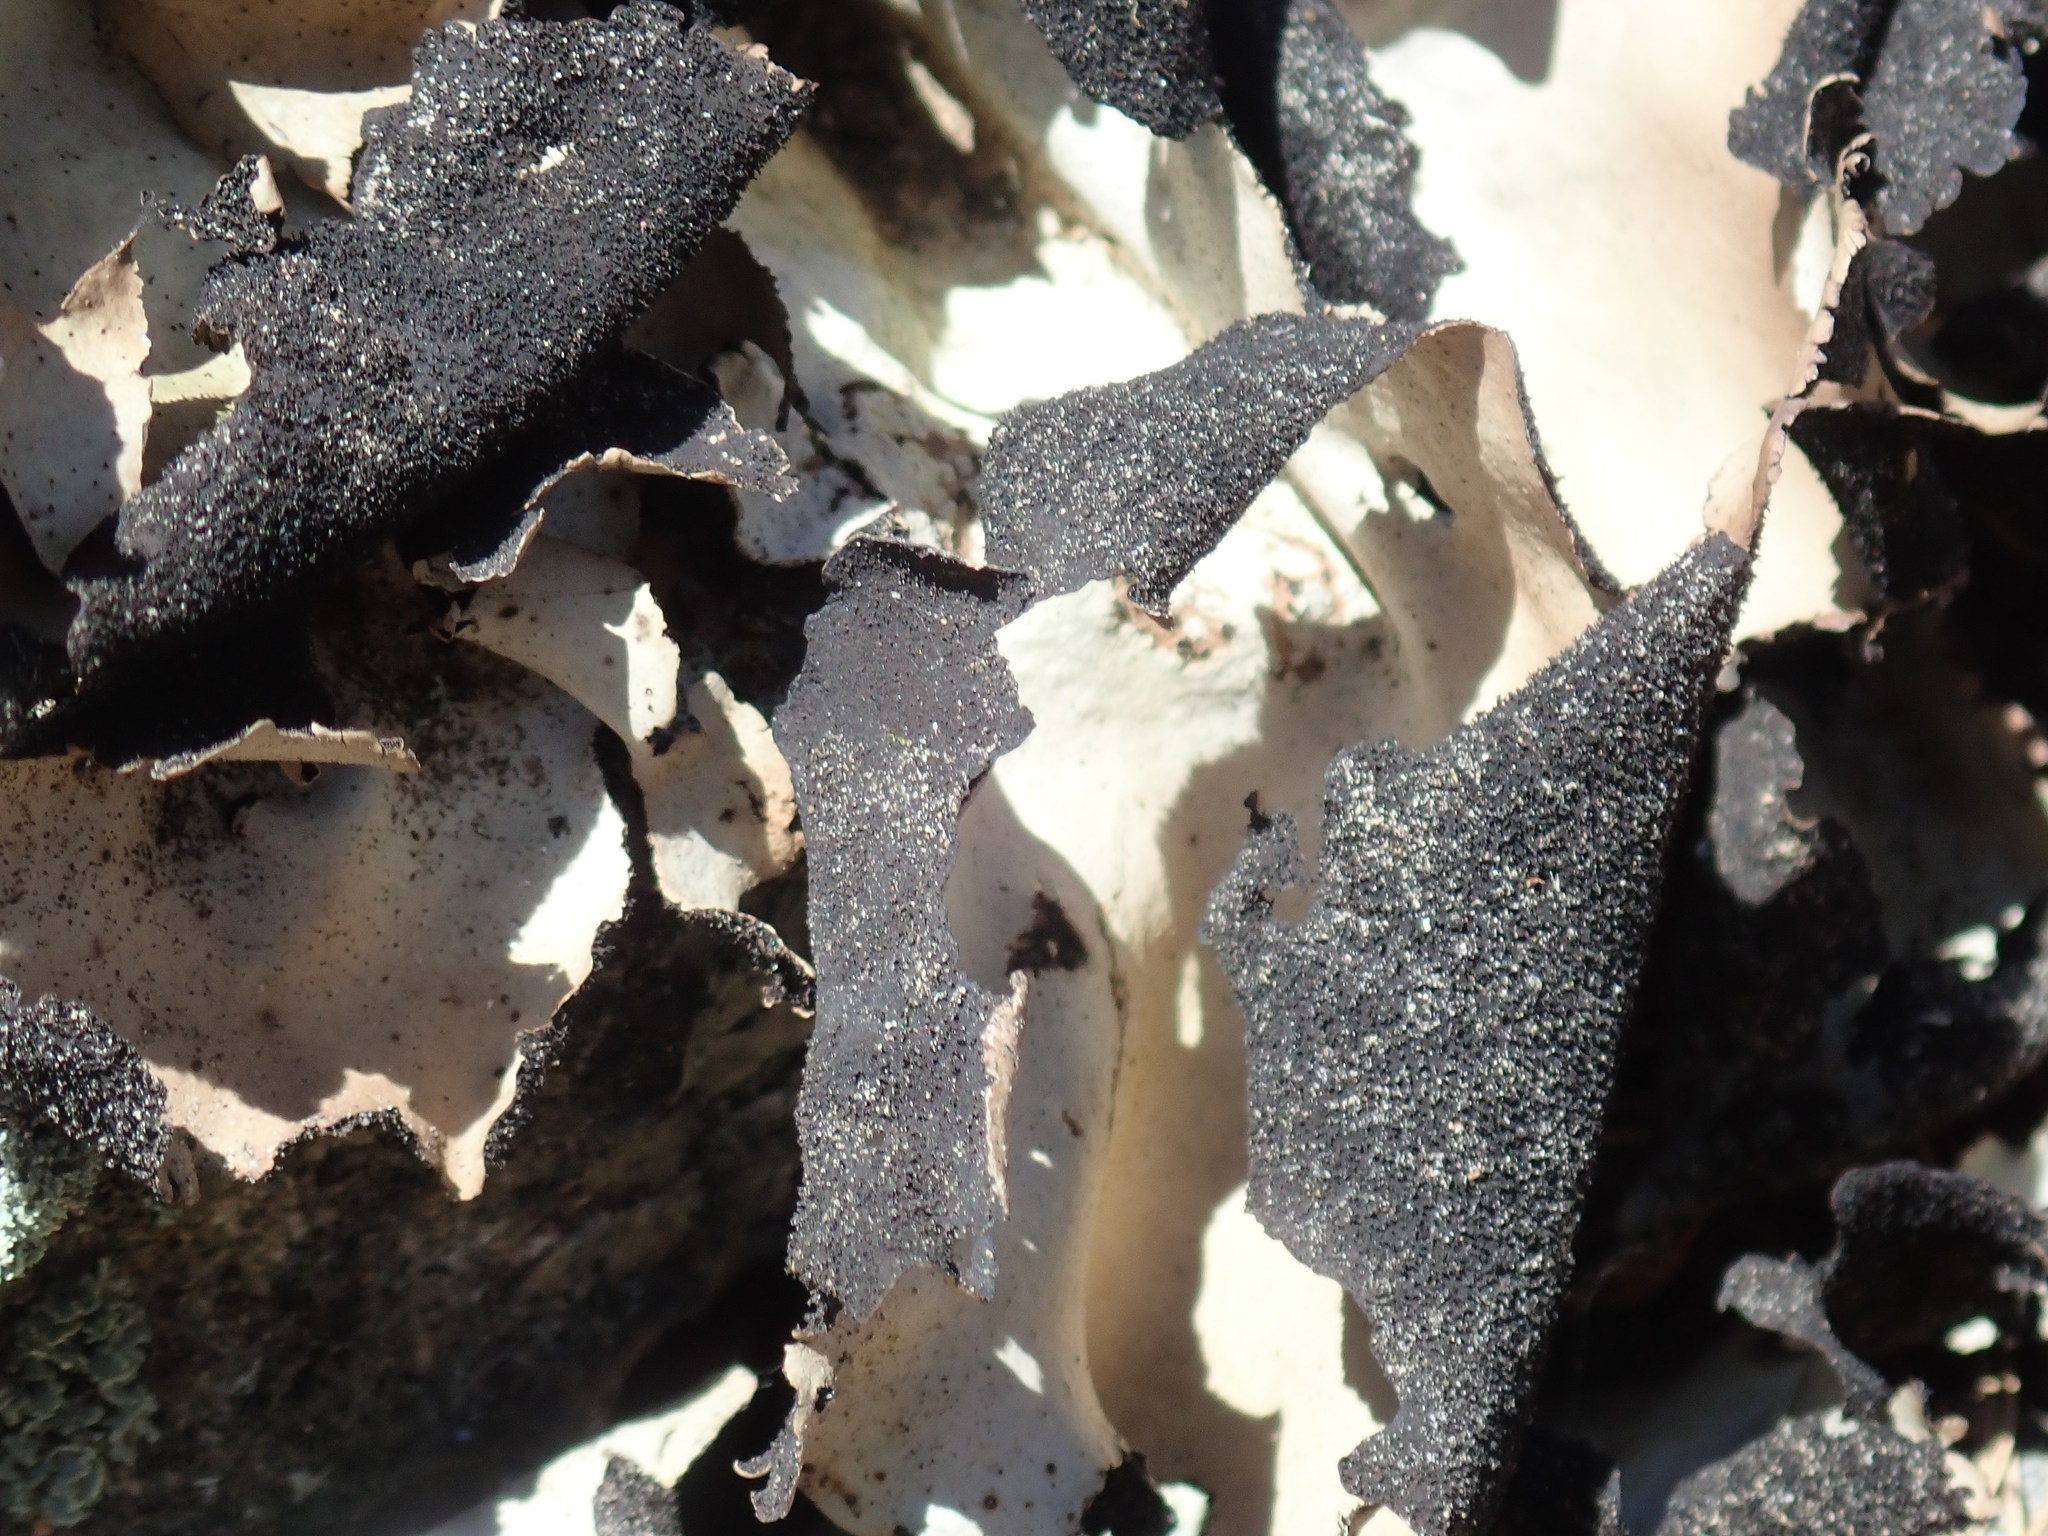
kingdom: Fungi
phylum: Ascomycota
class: Lecanoromycetes
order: Umbilicariales
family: Umbilicariaceae
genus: Umbilicaria
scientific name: Umbilicaria mammulata
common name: Smooth rock tripe
